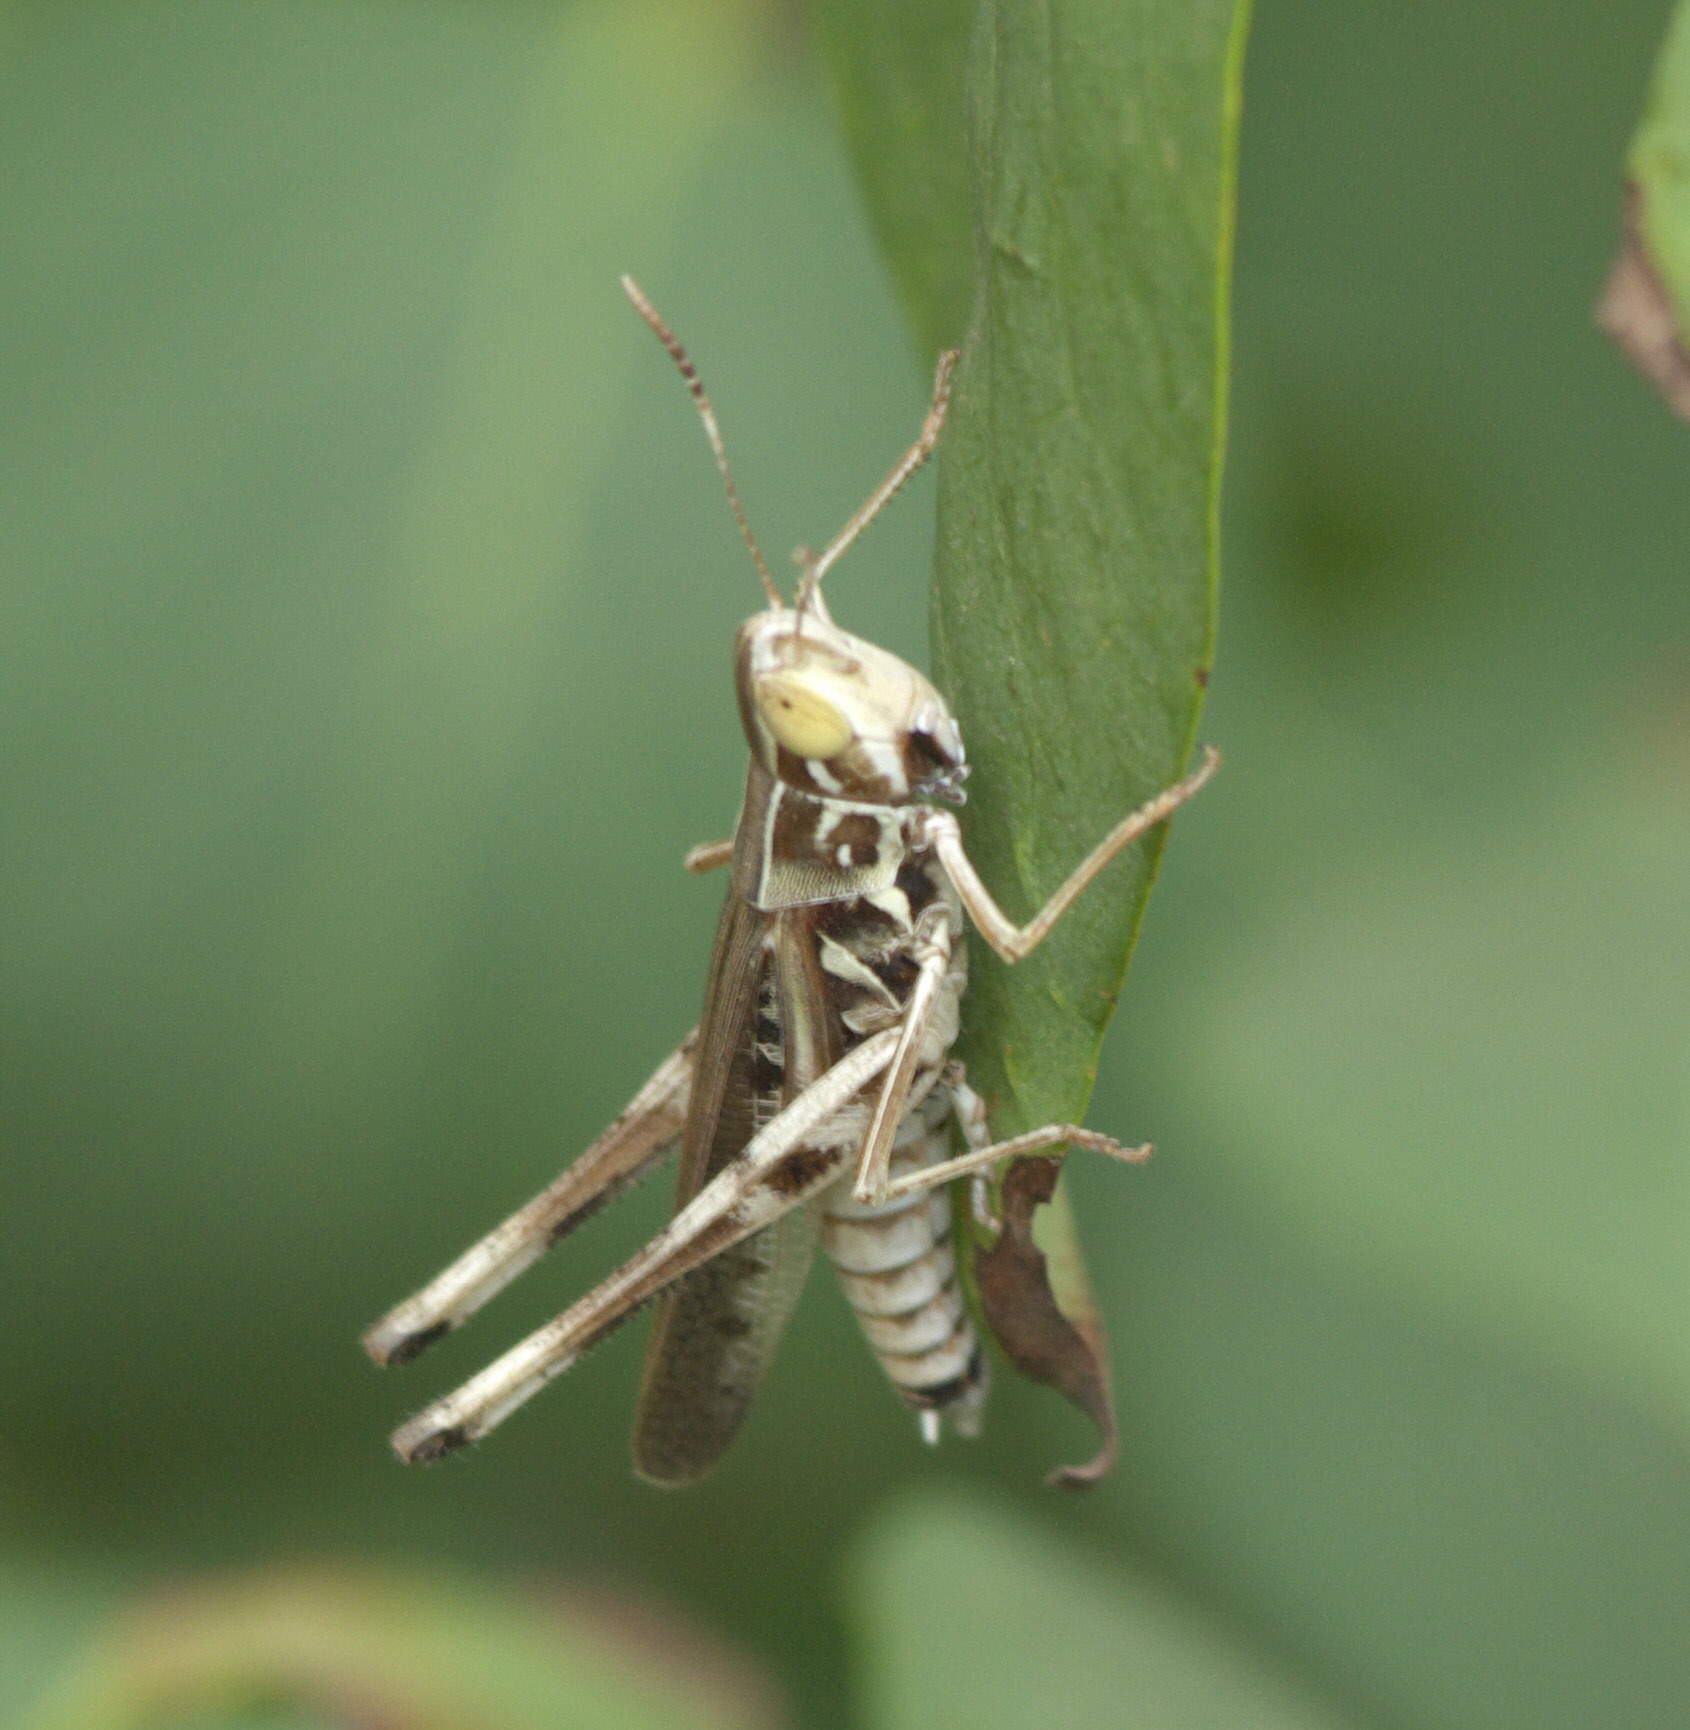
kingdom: Animalia
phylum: Arthropoda
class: Insecta
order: Orthoptera
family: Acrididae
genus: Syrbula
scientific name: Syrbula admirabilis
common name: Handsome grasshopper
